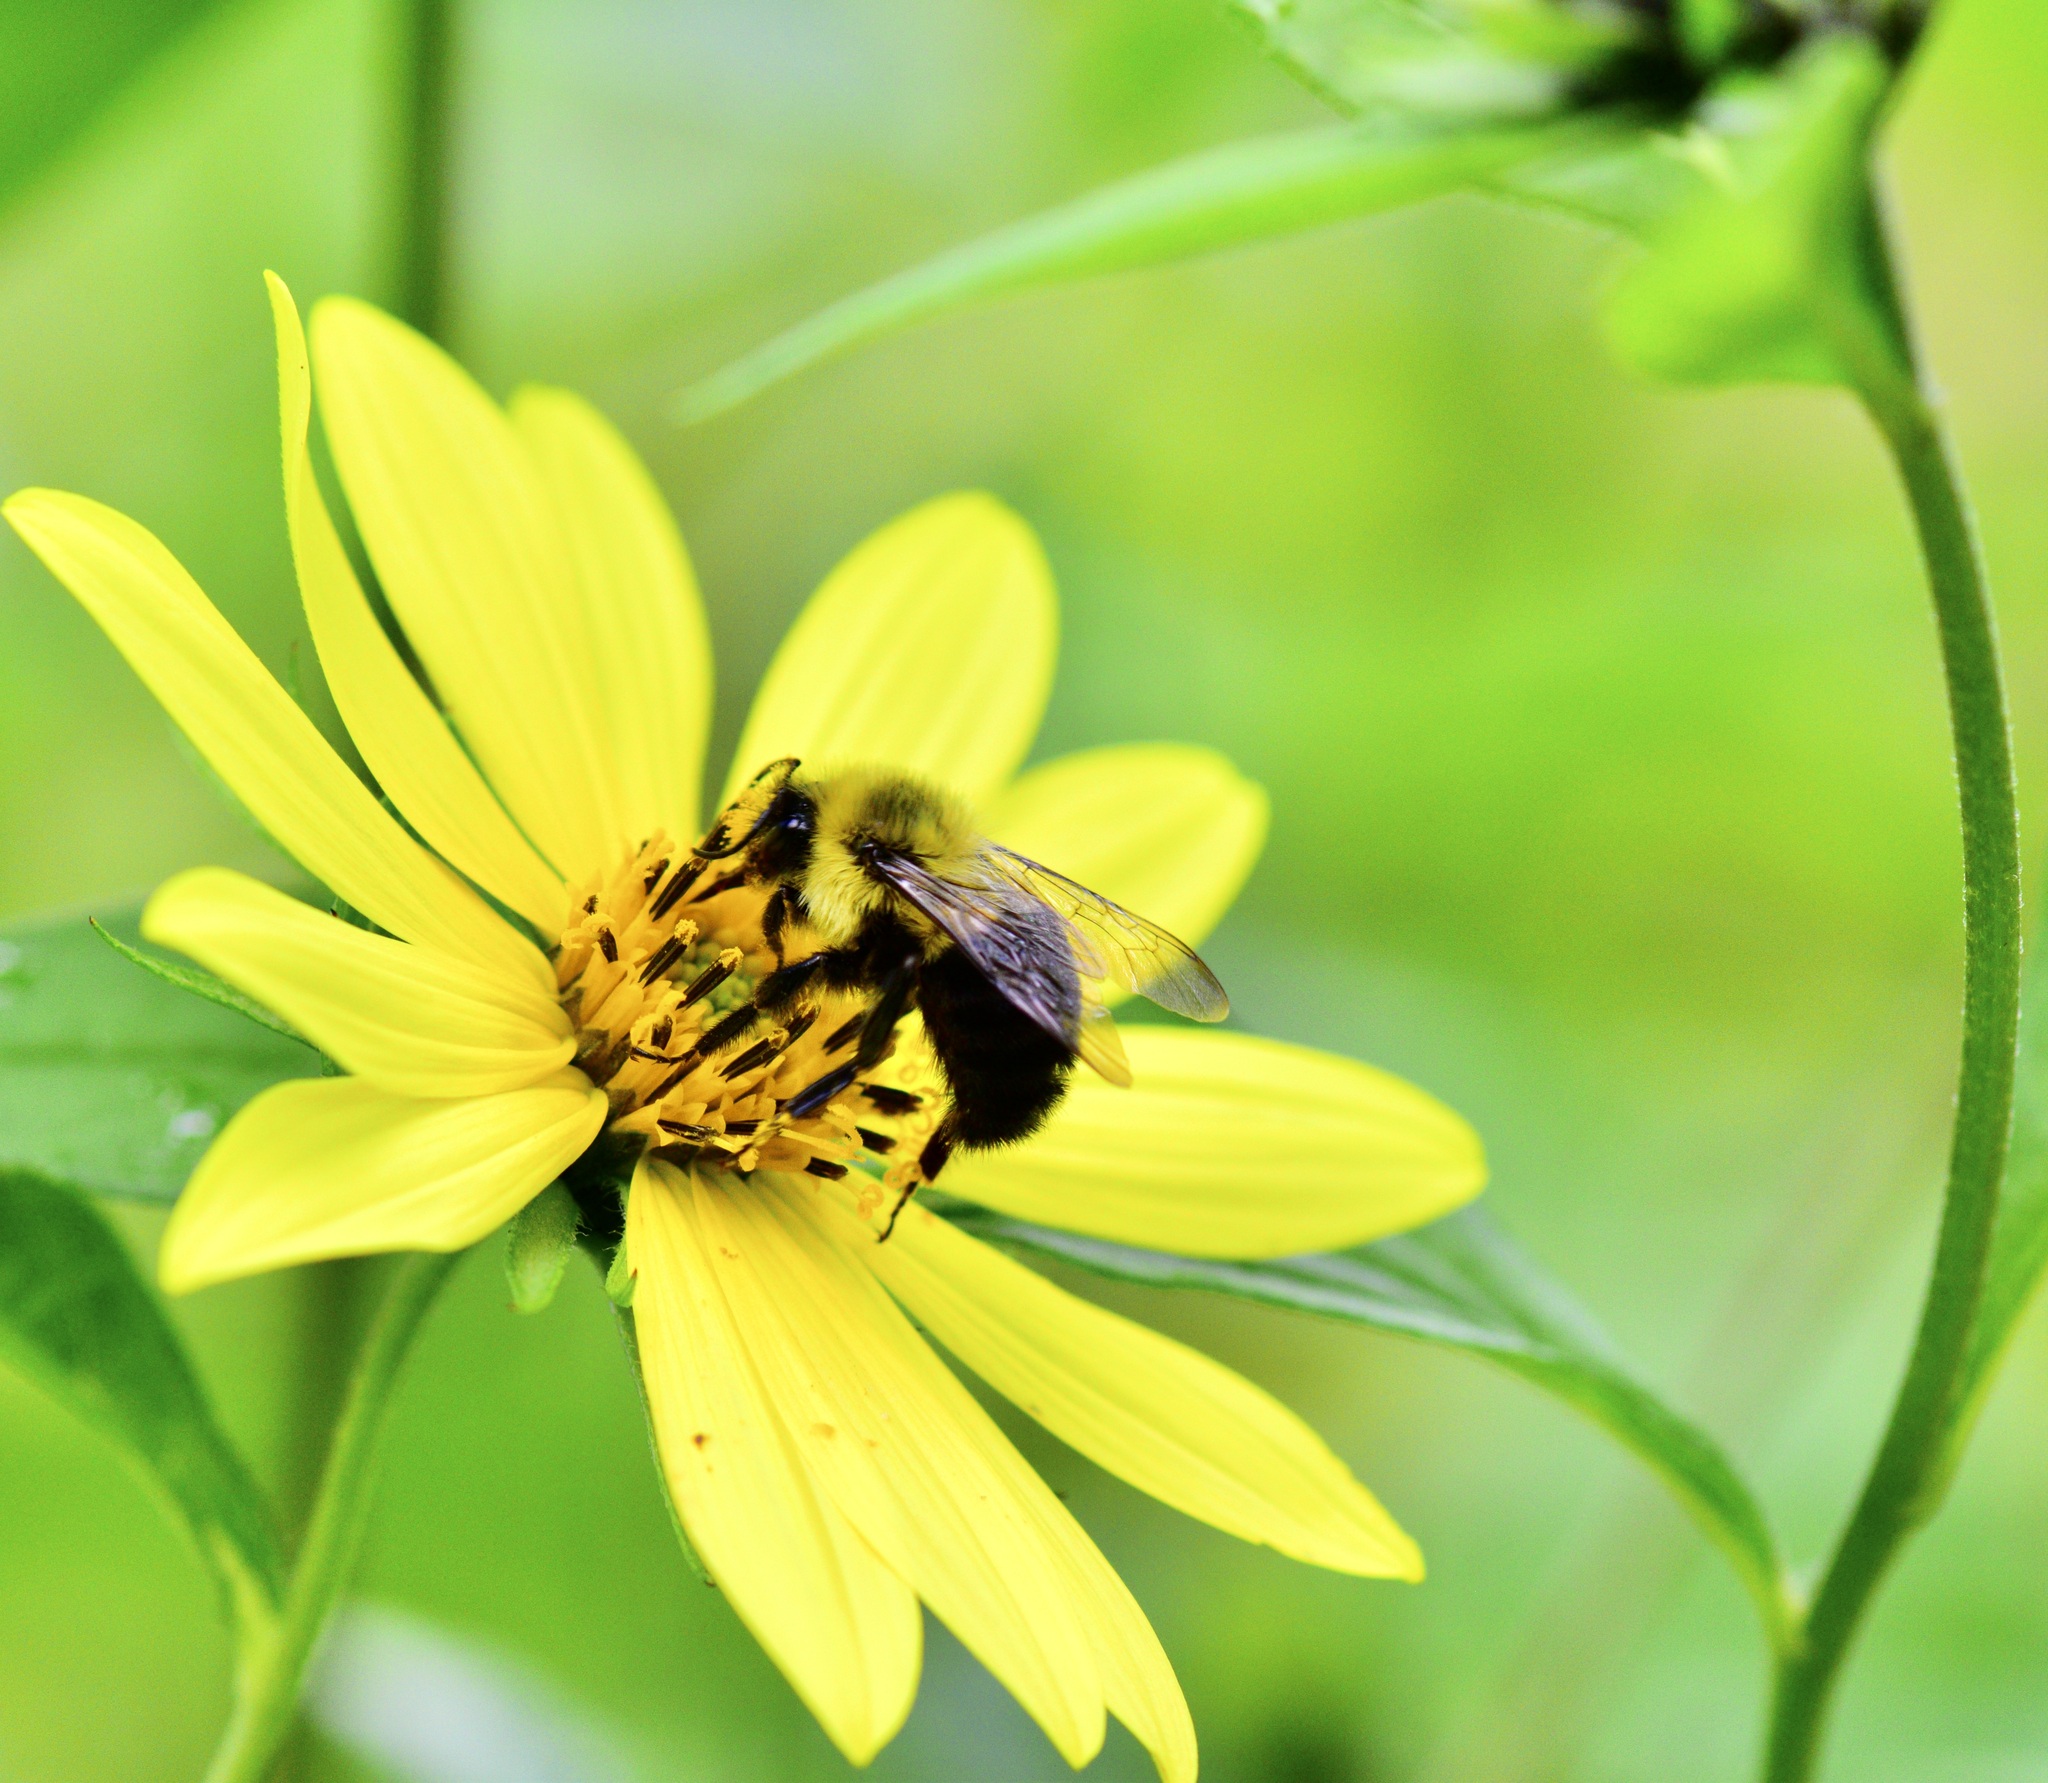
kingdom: Animalia
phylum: Arthropoda
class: Insecta
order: Hymenoptera
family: Apidae
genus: Bombus
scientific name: Bombus impatiens
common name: Common eastern bumble bee
